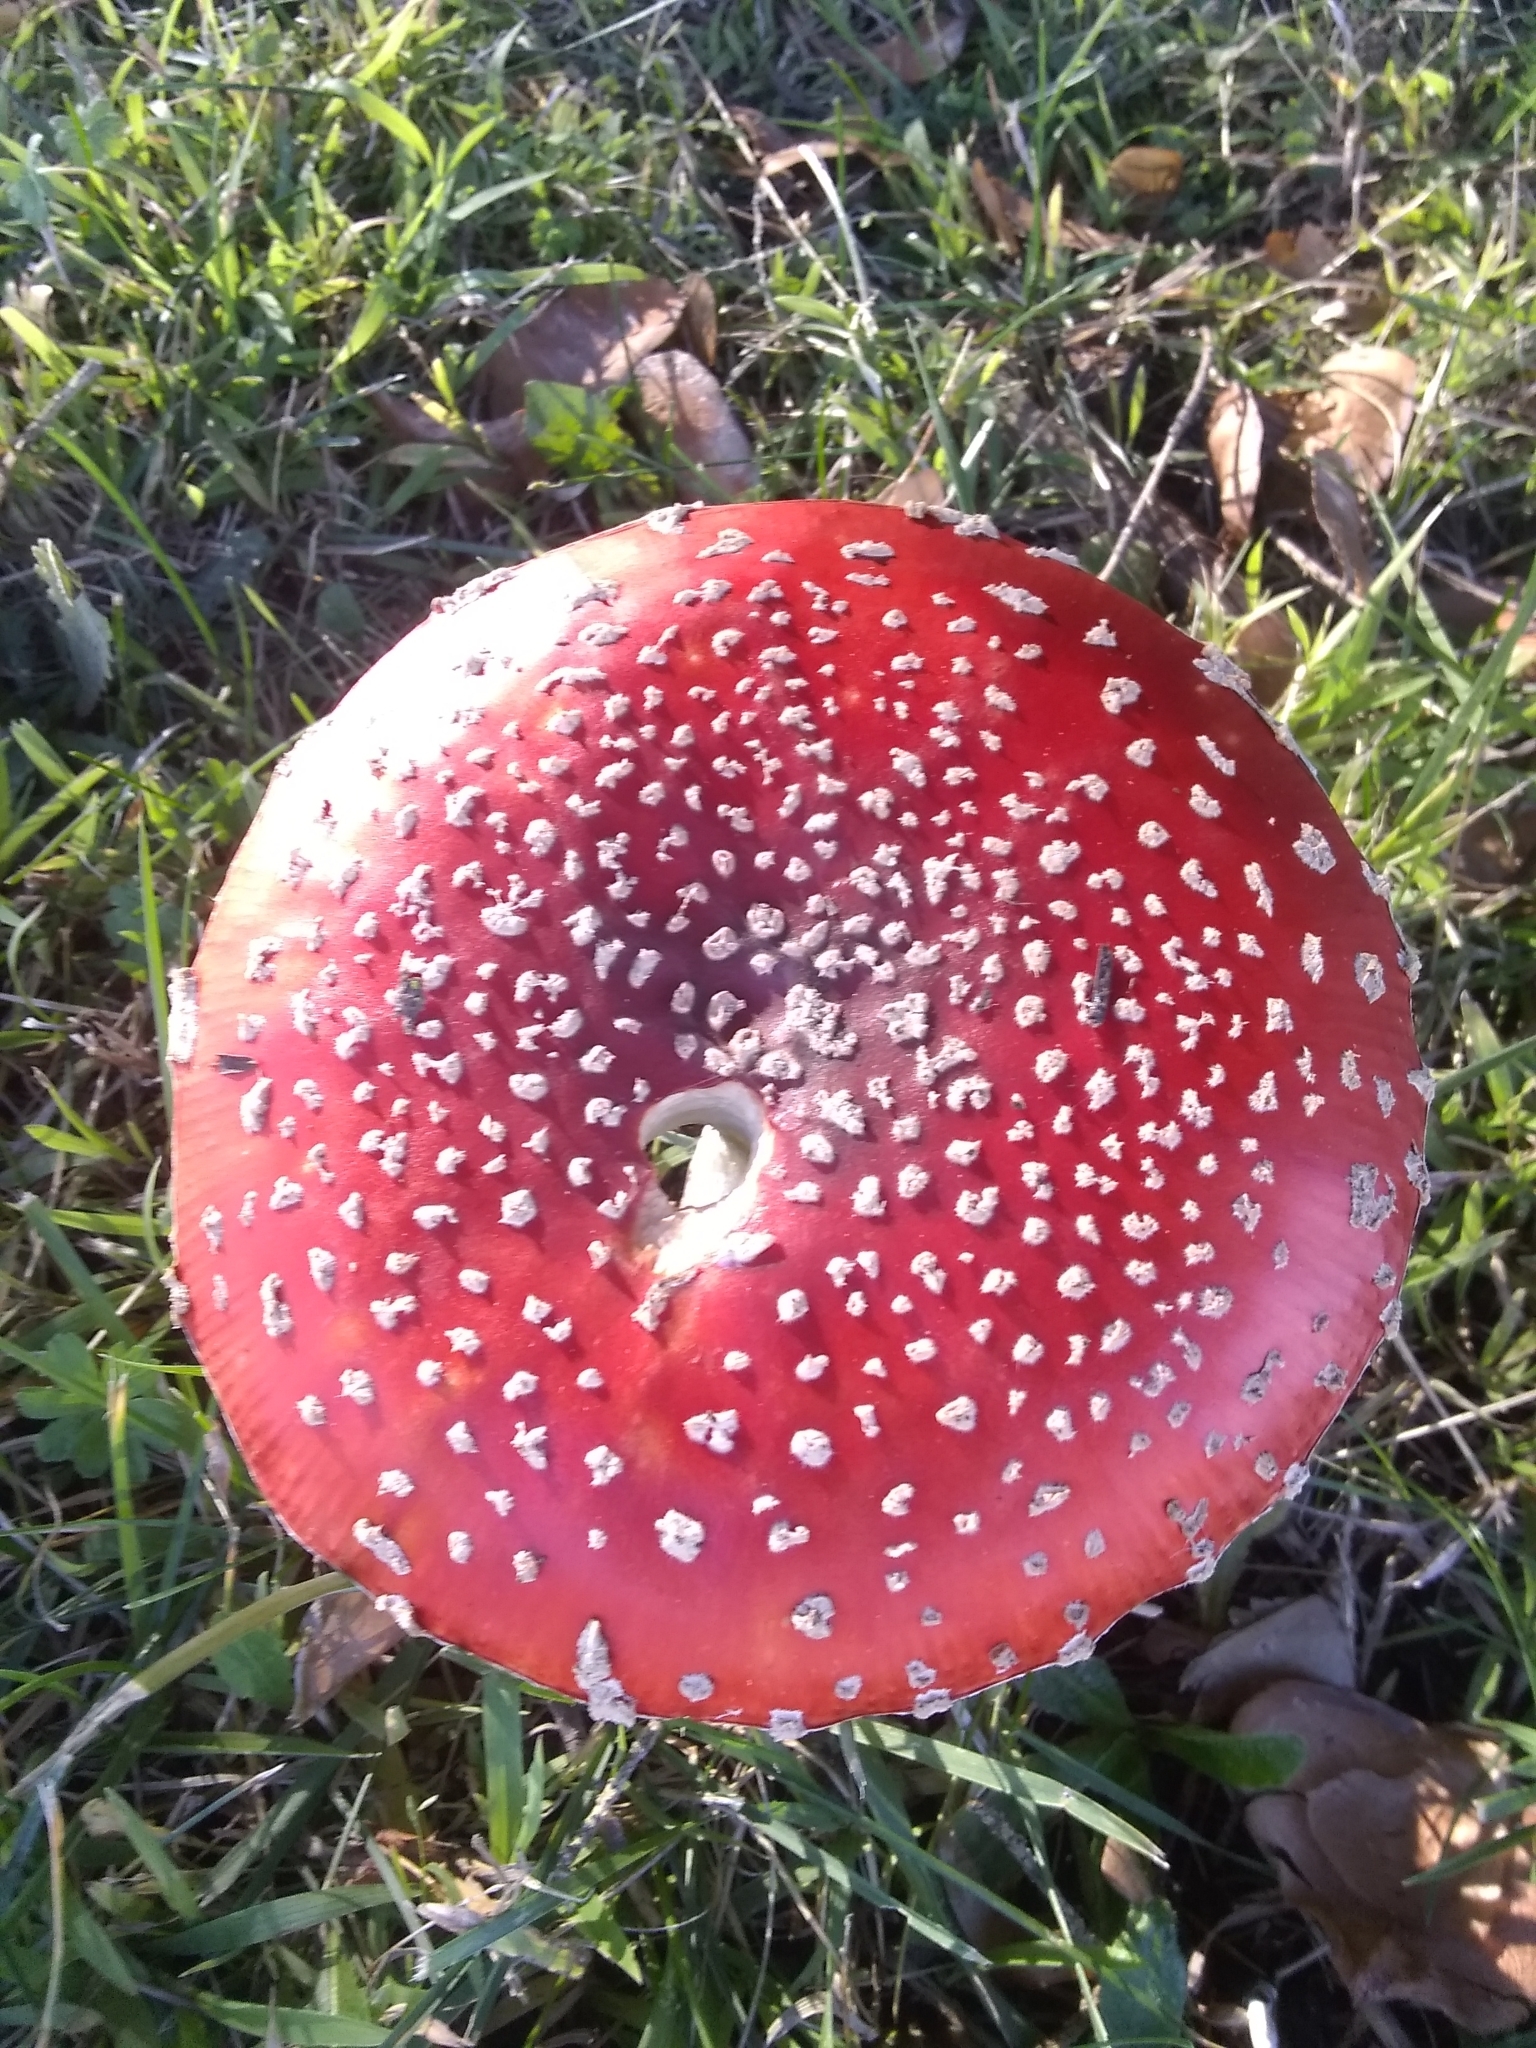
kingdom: Fungi
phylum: Basidiomycota
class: Agaricomycetes
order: Agaricales
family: Amanitaceae
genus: Amanita
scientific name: Amanita muscaria
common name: Fly agaric
